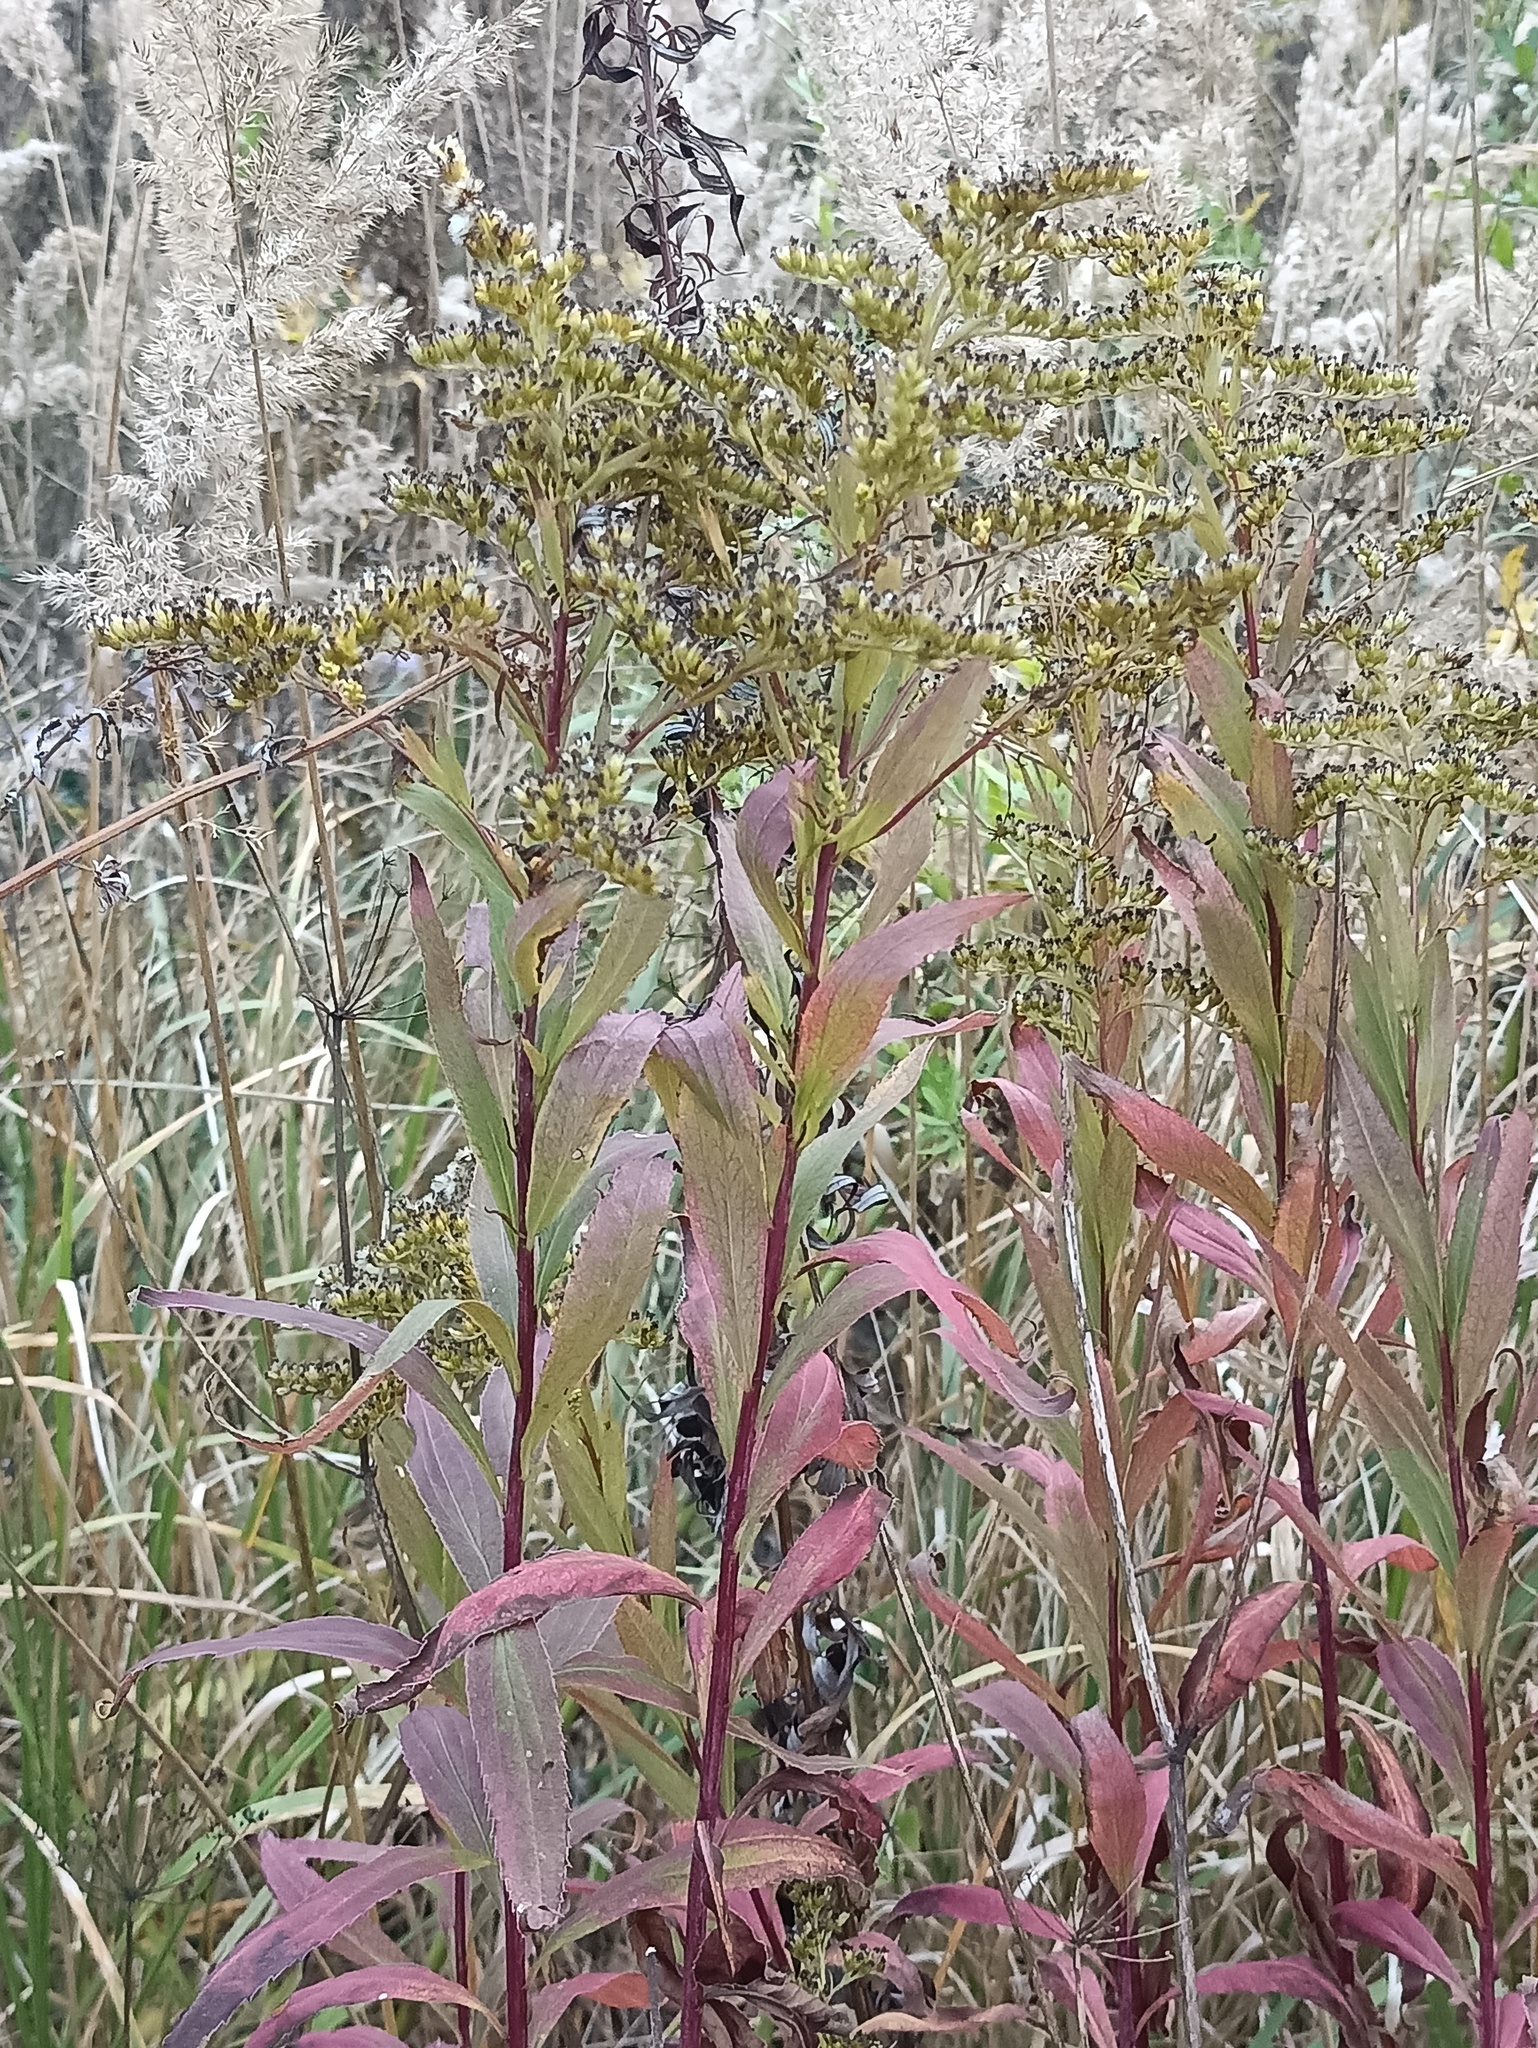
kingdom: Plantae
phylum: Tracheophyta
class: Magnoliopsida
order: Asterales
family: Asteraceae
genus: Solidago
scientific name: Solidago gigantea
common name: Giant goldenrod
